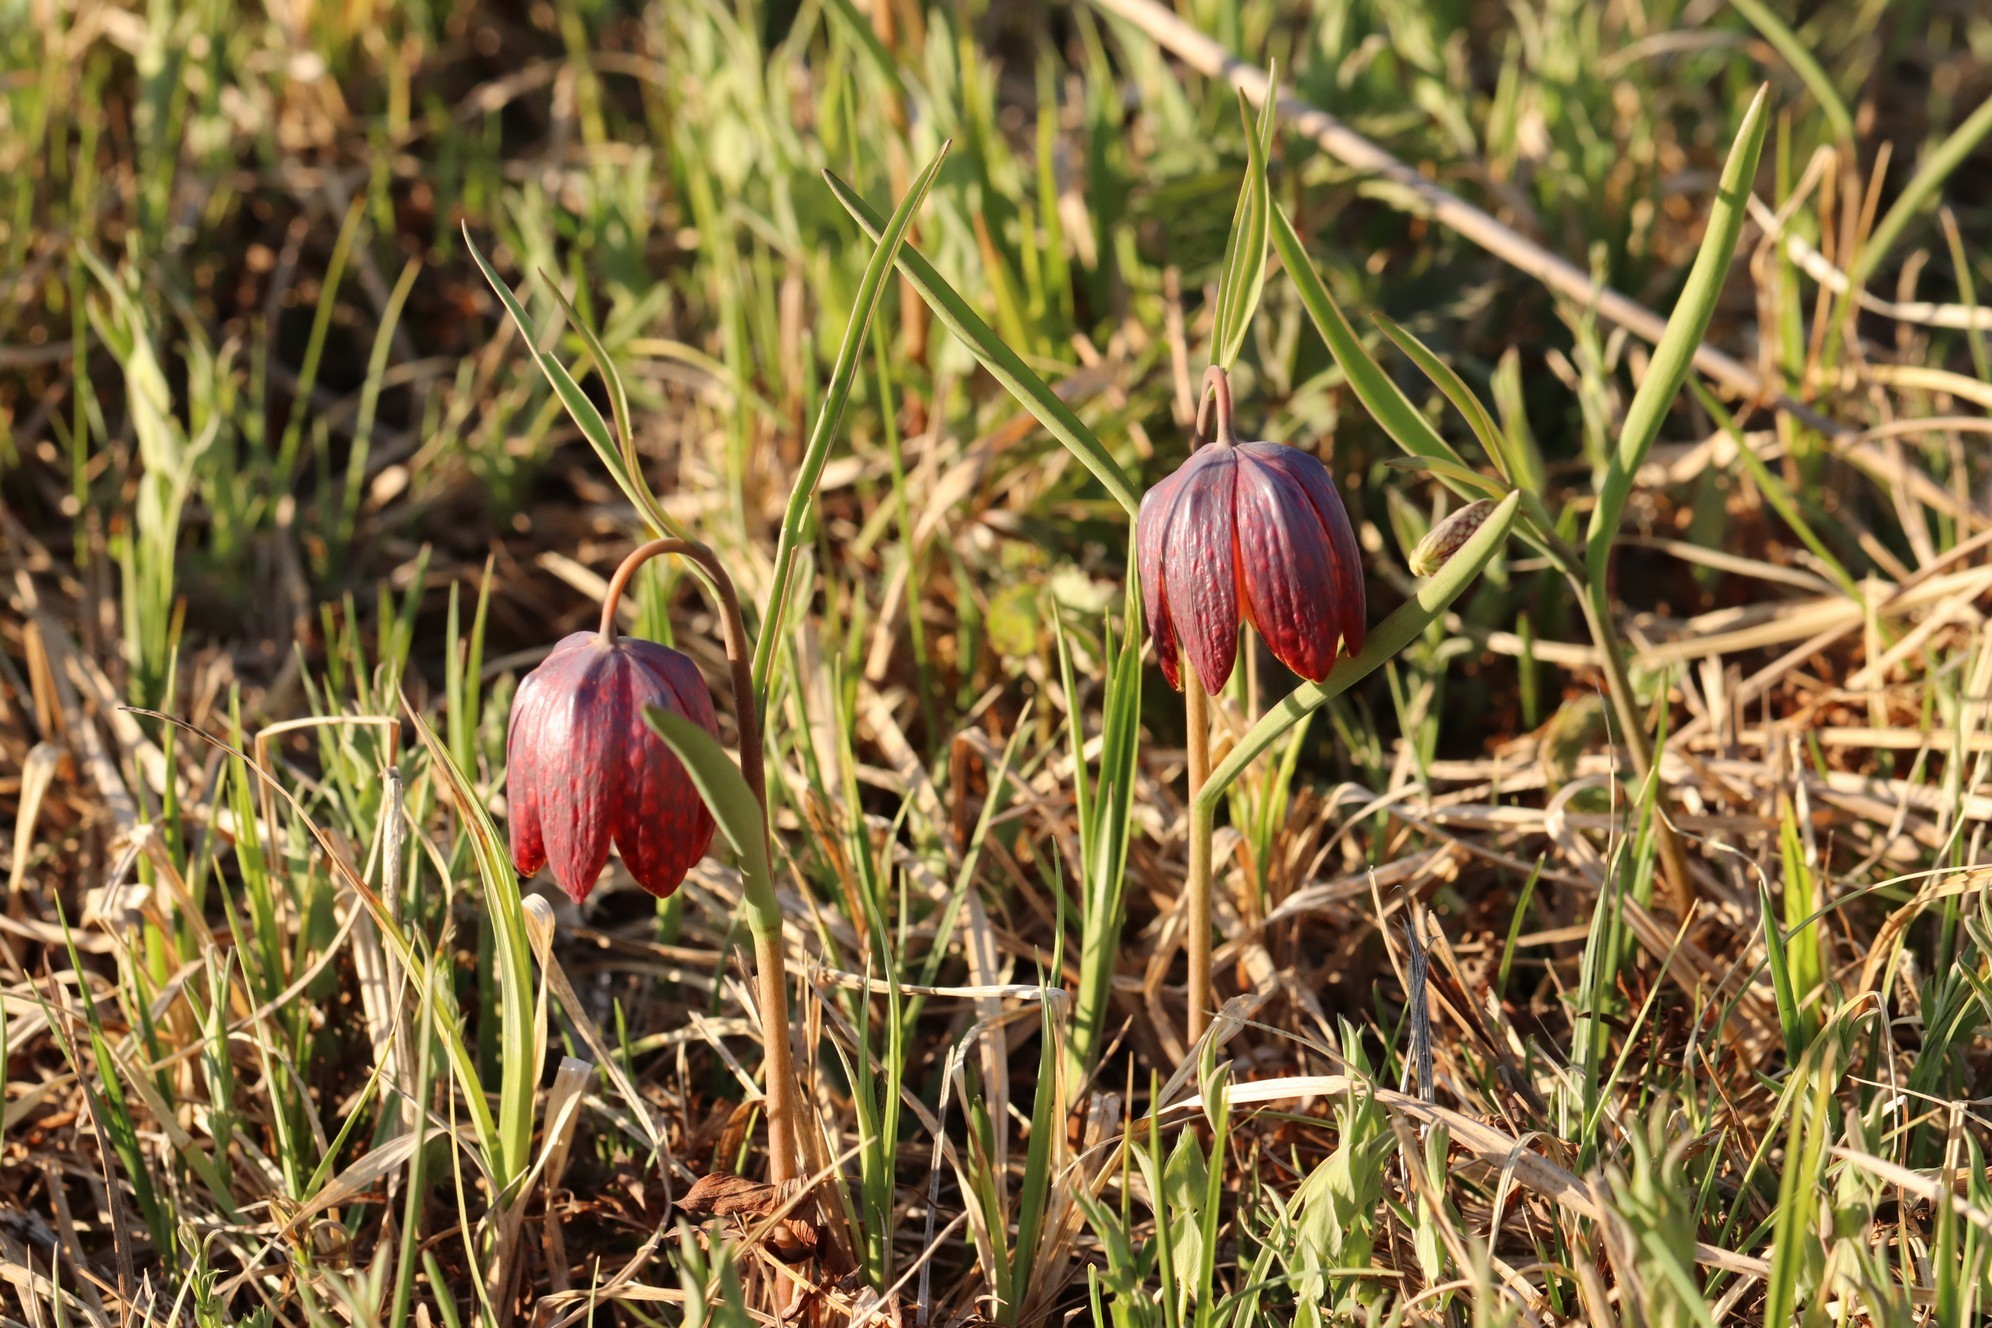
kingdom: Plantae
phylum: Tracheophyta
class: Liliopsida
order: Liliales
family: Liliaceae
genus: Fritillaria
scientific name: Fritillaria meleagris
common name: Fritillary
